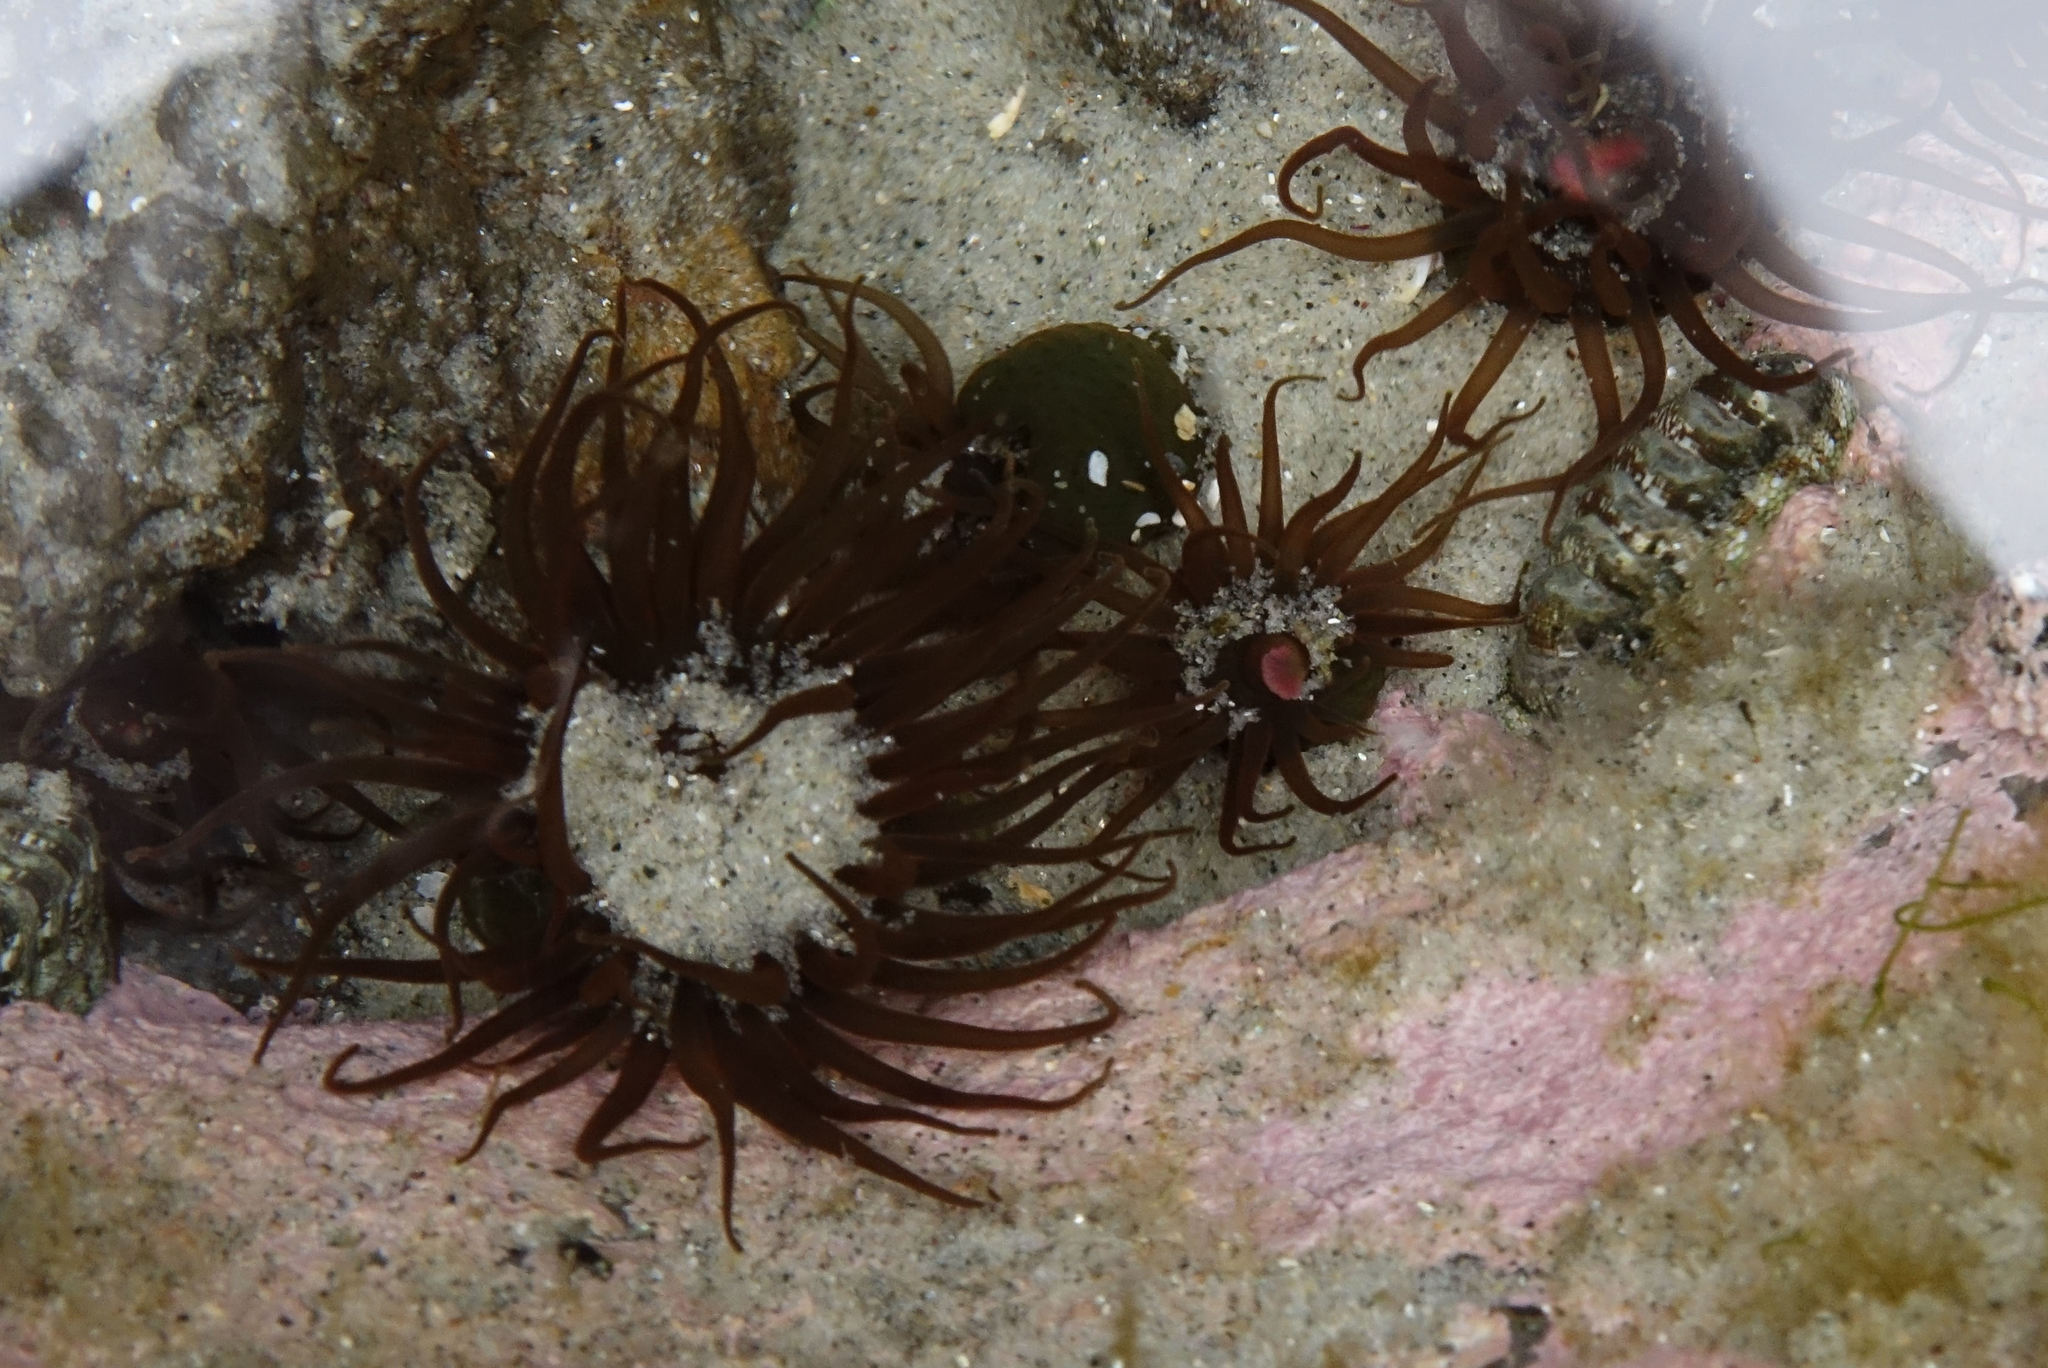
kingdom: Animalia
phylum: Cnidaria
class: Anthozoa
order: Actiniaria
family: Actiniidae
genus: Isactinia
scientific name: Isactinia olivacea
